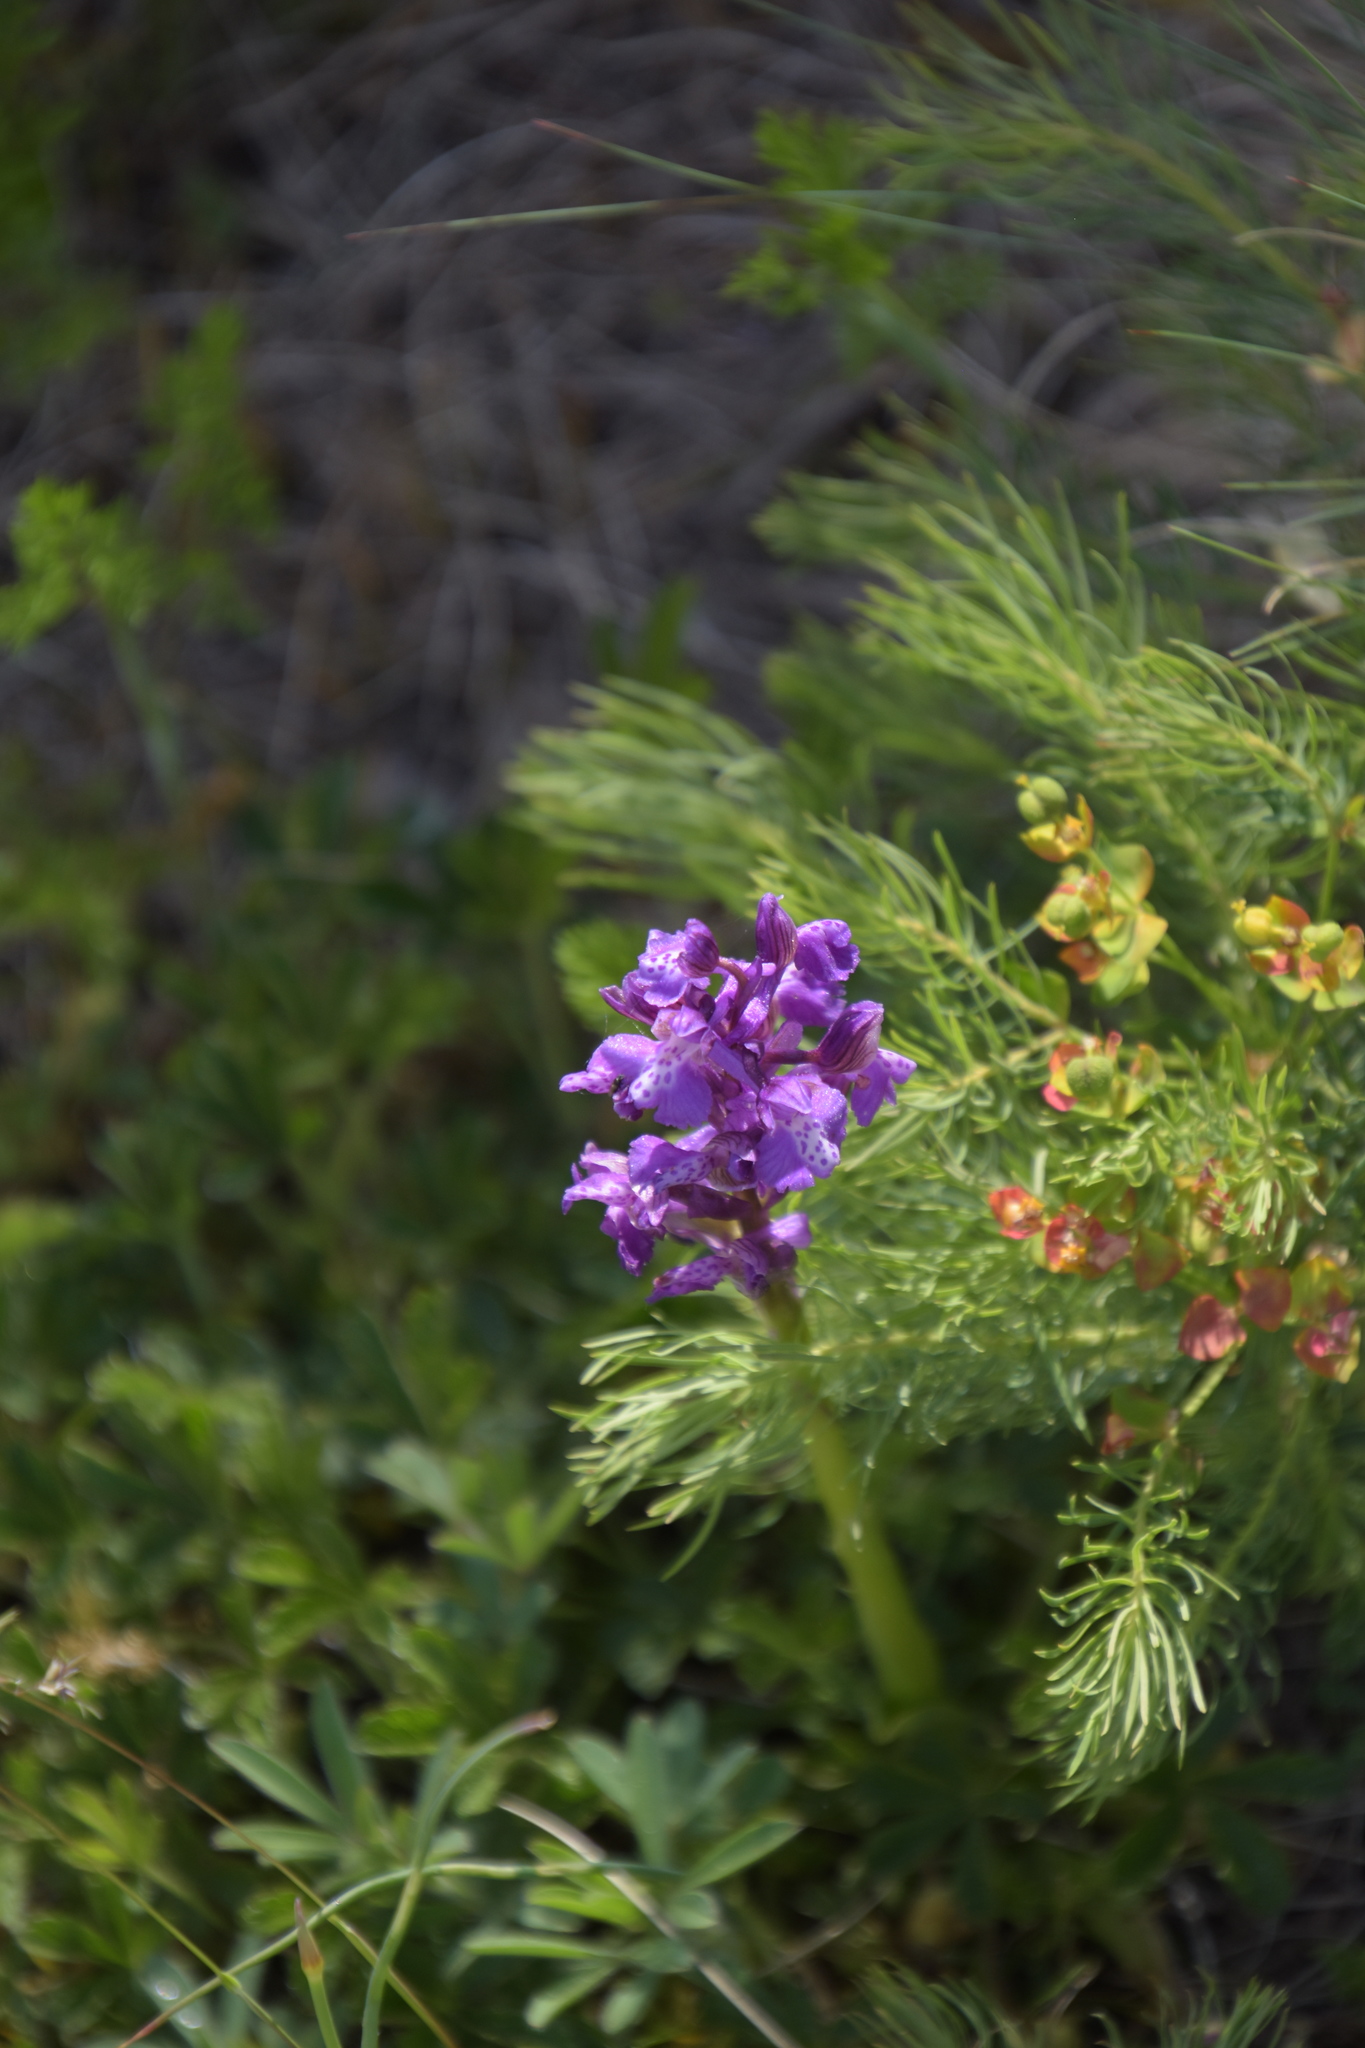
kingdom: Plantae
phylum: Tracheophyta
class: Liliopsida
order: Asparagales
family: Orchidaceae
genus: Anacamptis
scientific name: Anacamptis morio
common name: Green-winged orchid
